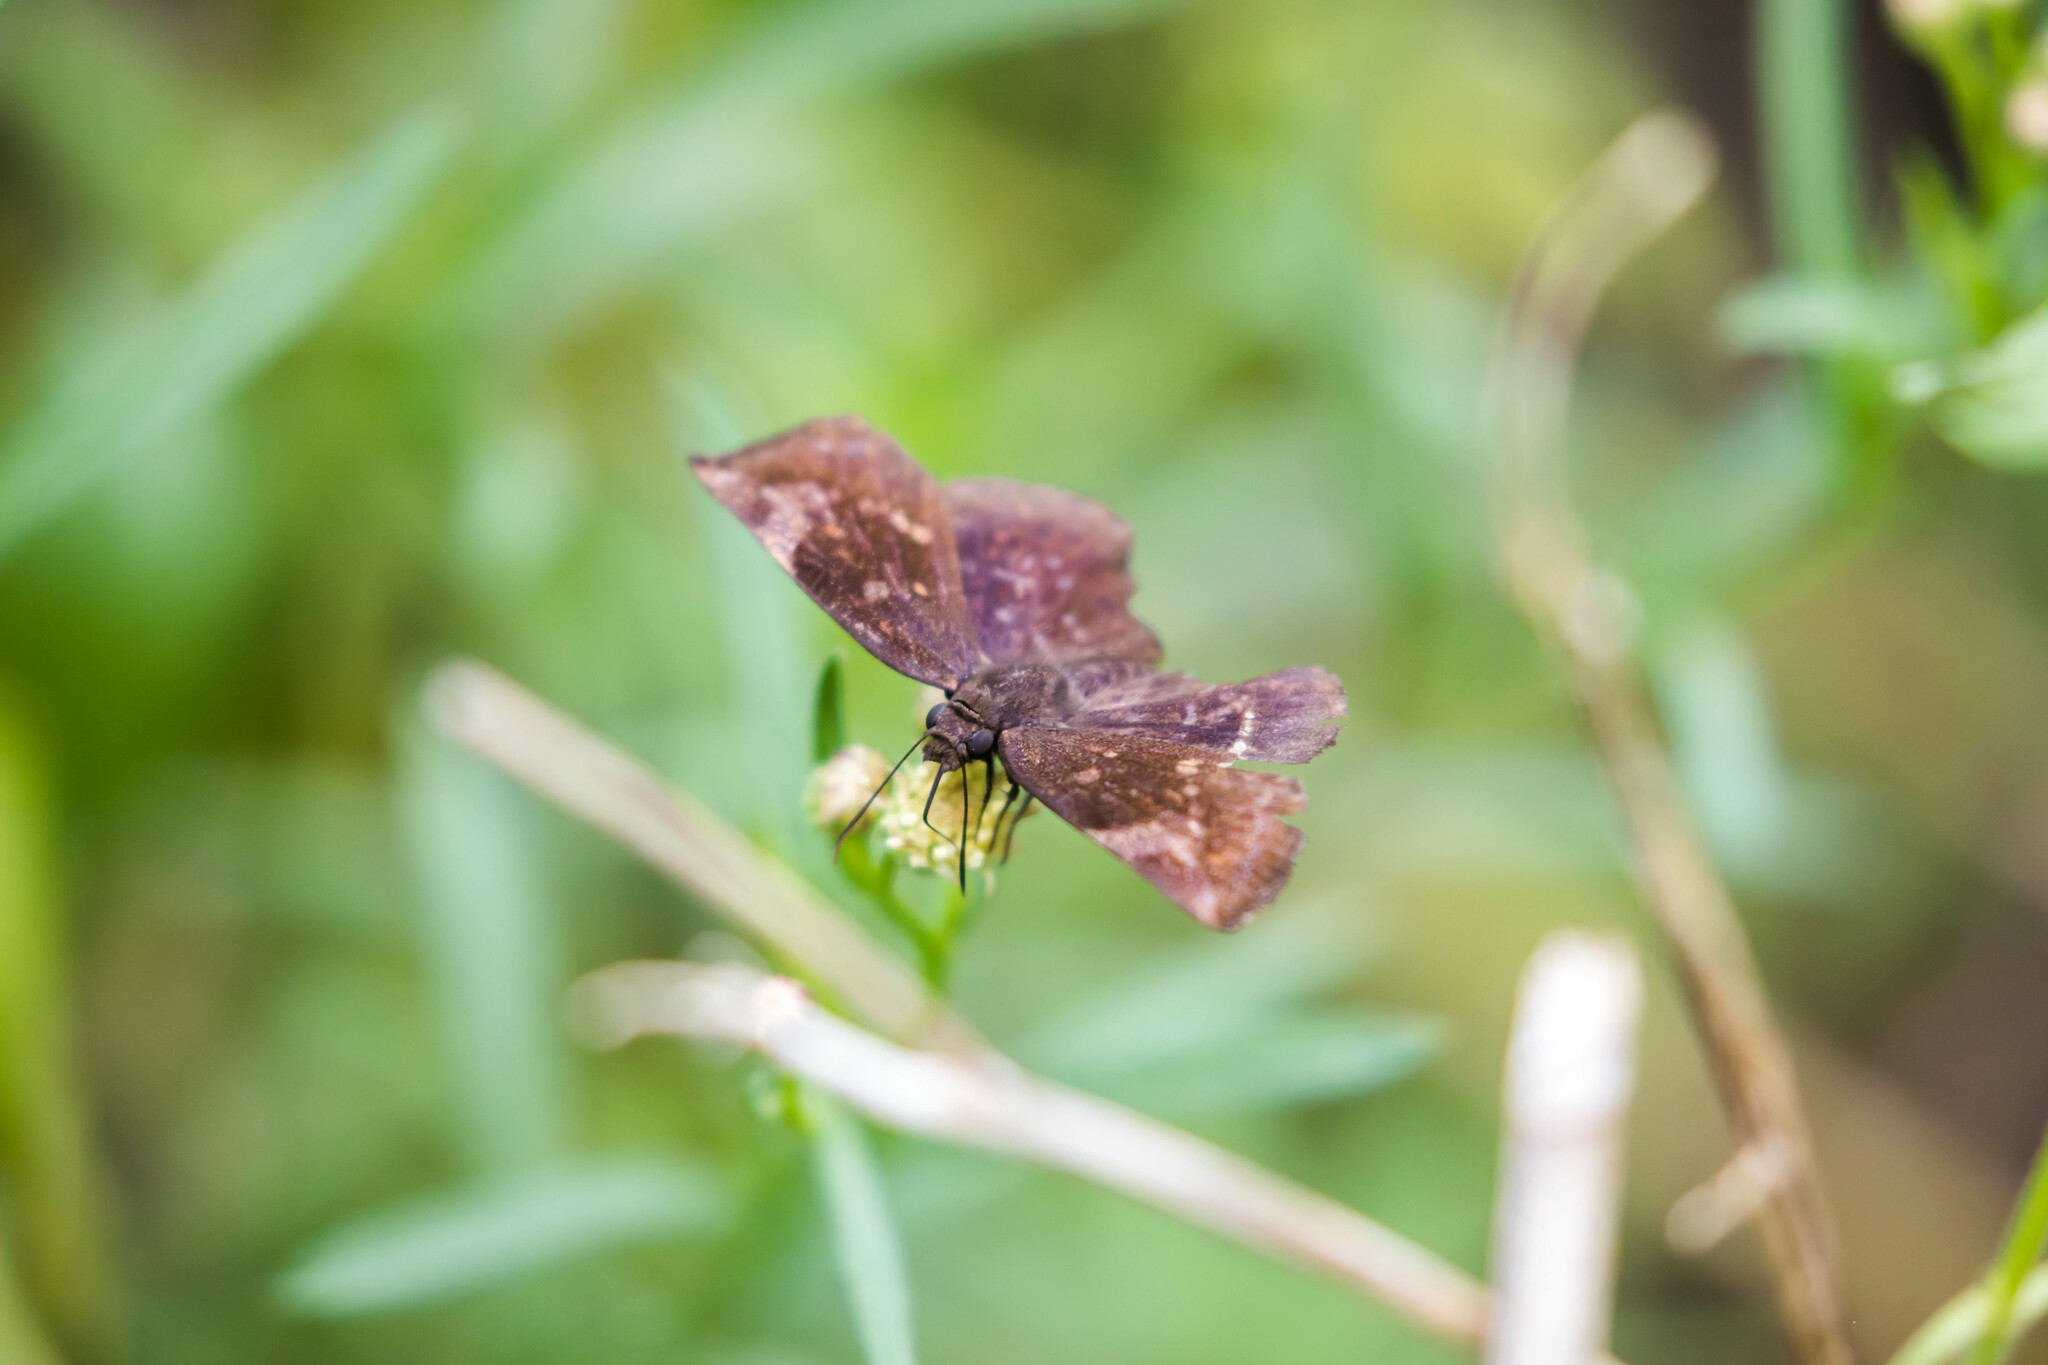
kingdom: Animalia
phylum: Arthropoda
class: Insecta
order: Lepidoptera
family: Hesperiidae
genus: Achlyodes
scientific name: Achlyodes thraso
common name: Sickle-winged skipper
